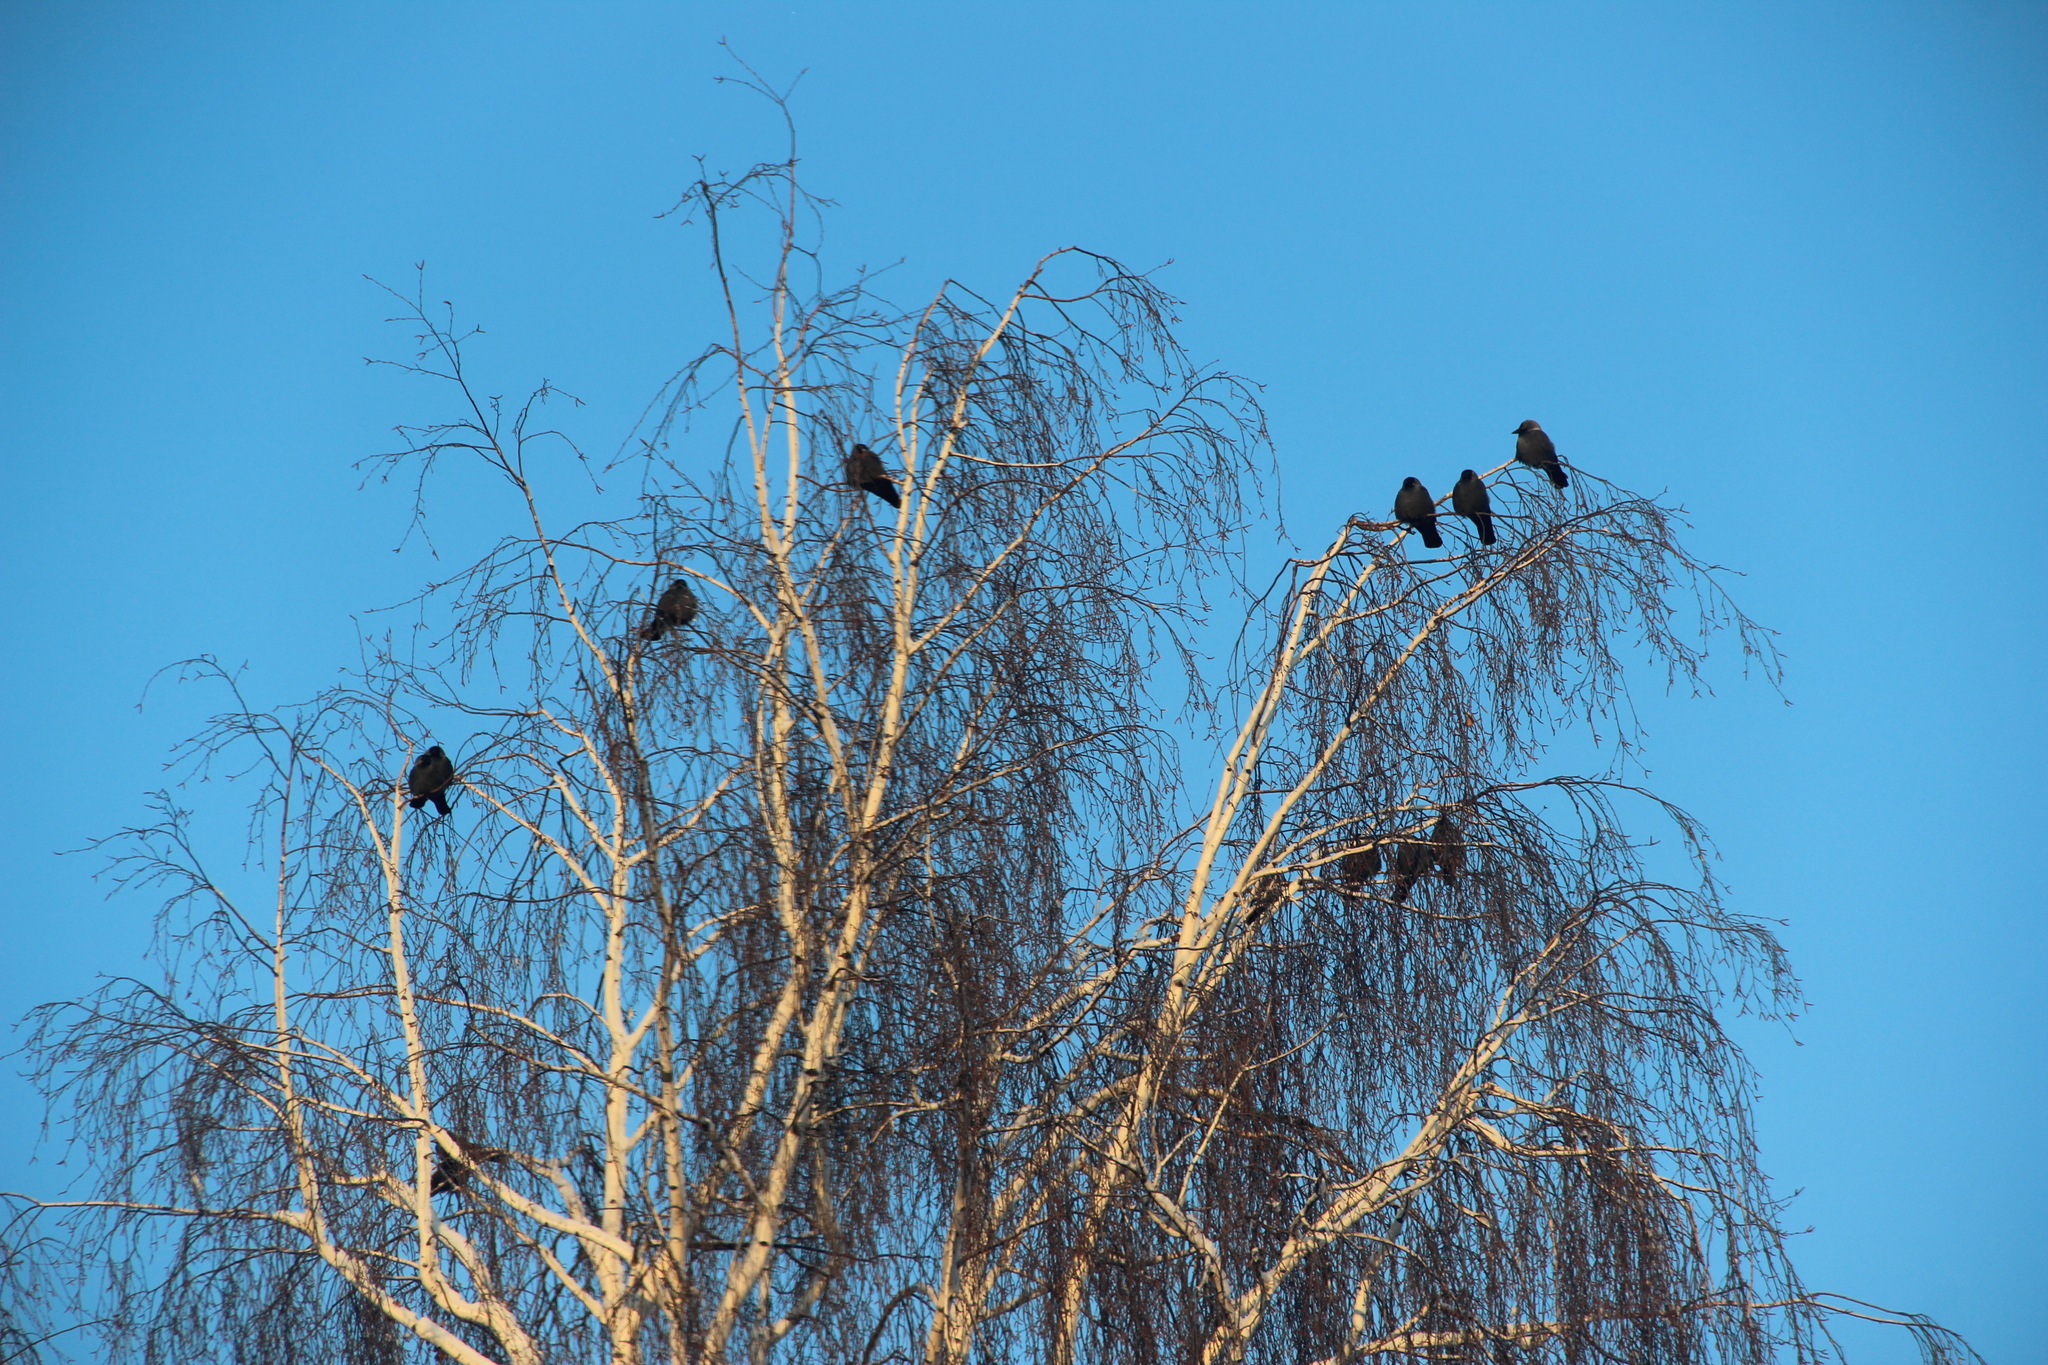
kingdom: Animalia
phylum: Chordata
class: Aves
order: Passeriformes
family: Corvidae
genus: Coloeus
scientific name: Coloeus monedula
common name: Western jackdaw
